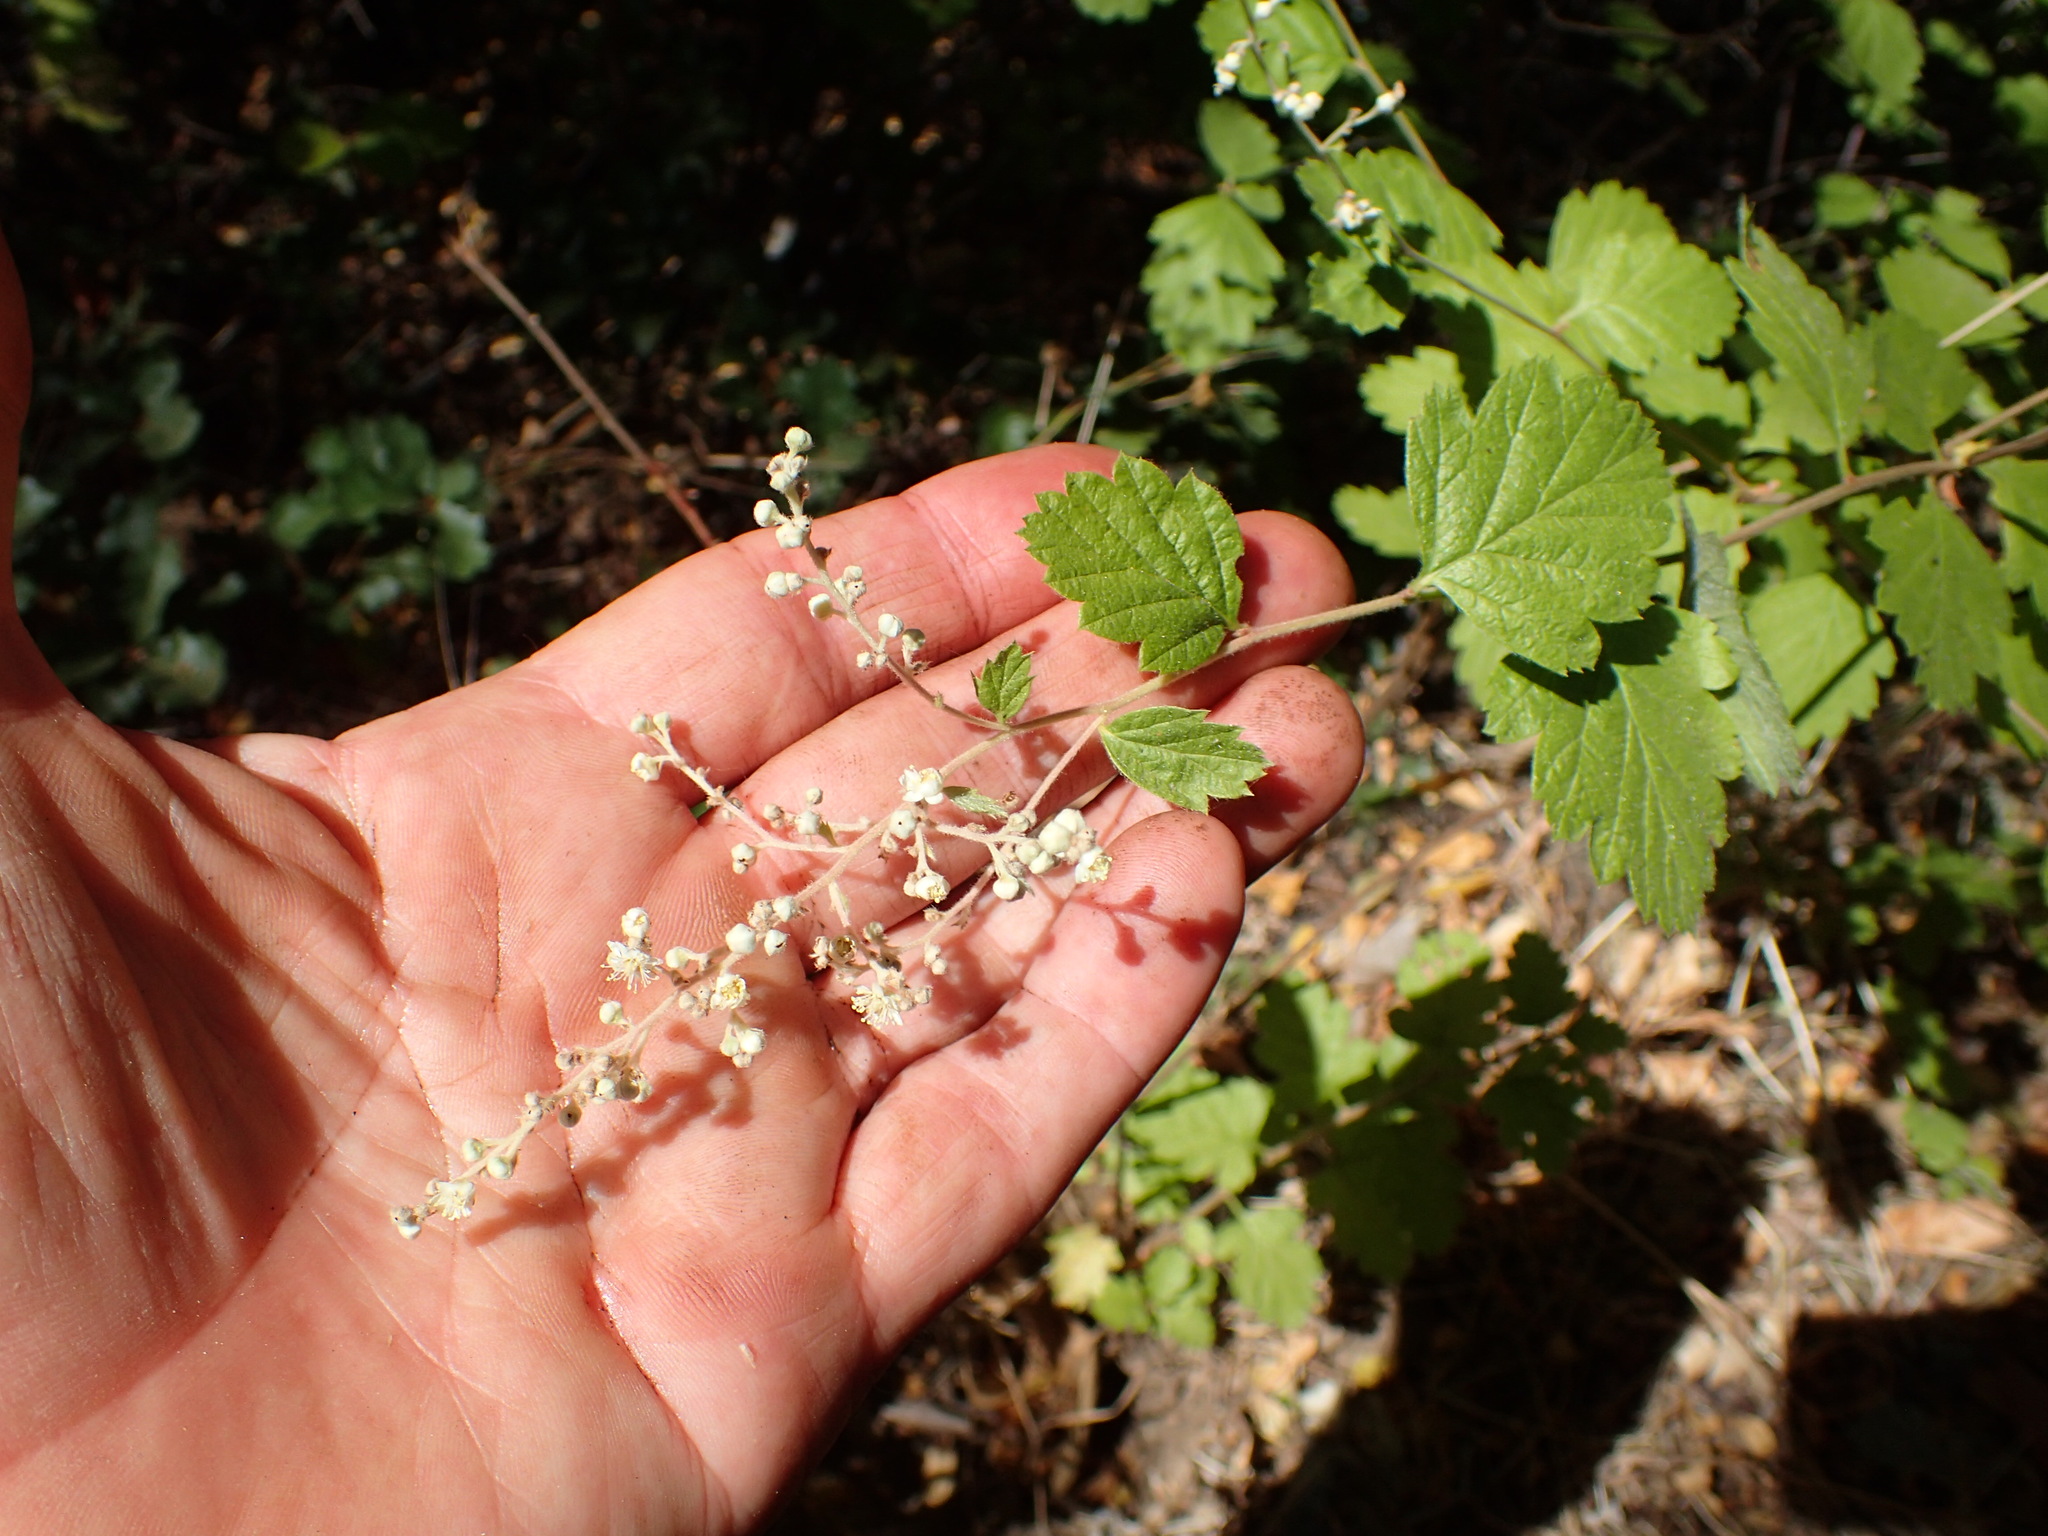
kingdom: Plantae
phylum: Tracheophyta
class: Magnoliopsida
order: Rosales
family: Rosaceae
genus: Holodiscus
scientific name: Holodiscus discolor
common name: Oceanspray
